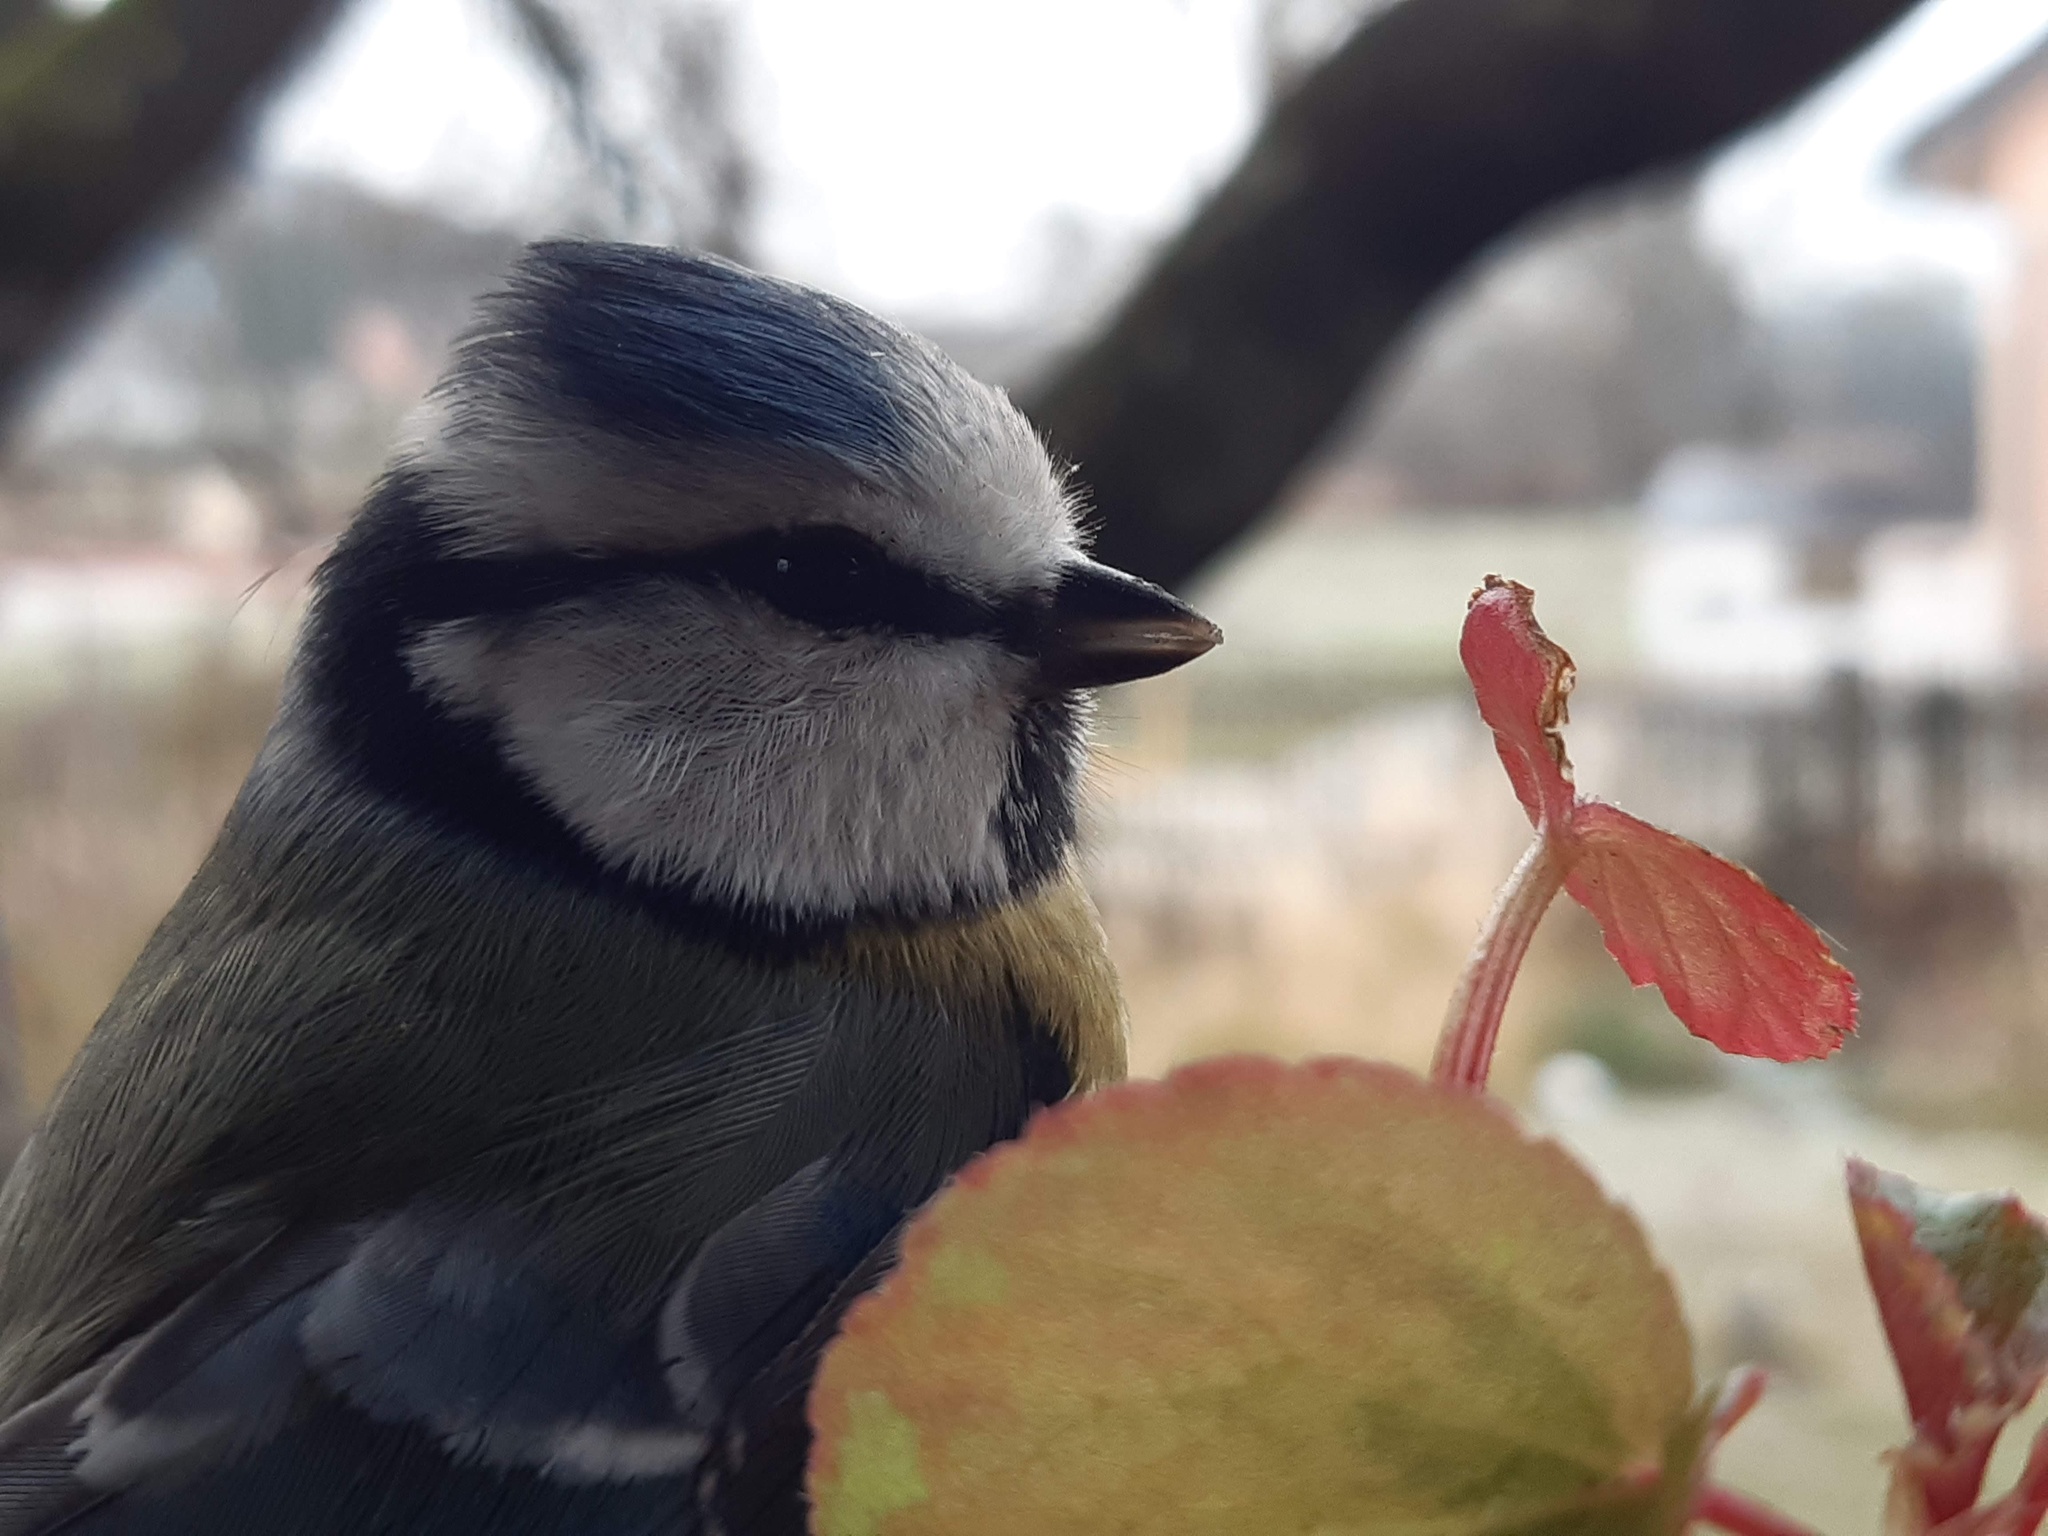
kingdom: Animalia
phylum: Chordata
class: Aves
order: Passeriformes
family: Paridae
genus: Cyanistes
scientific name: Cyanistes caeruleus
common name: Eurasian blue tit
